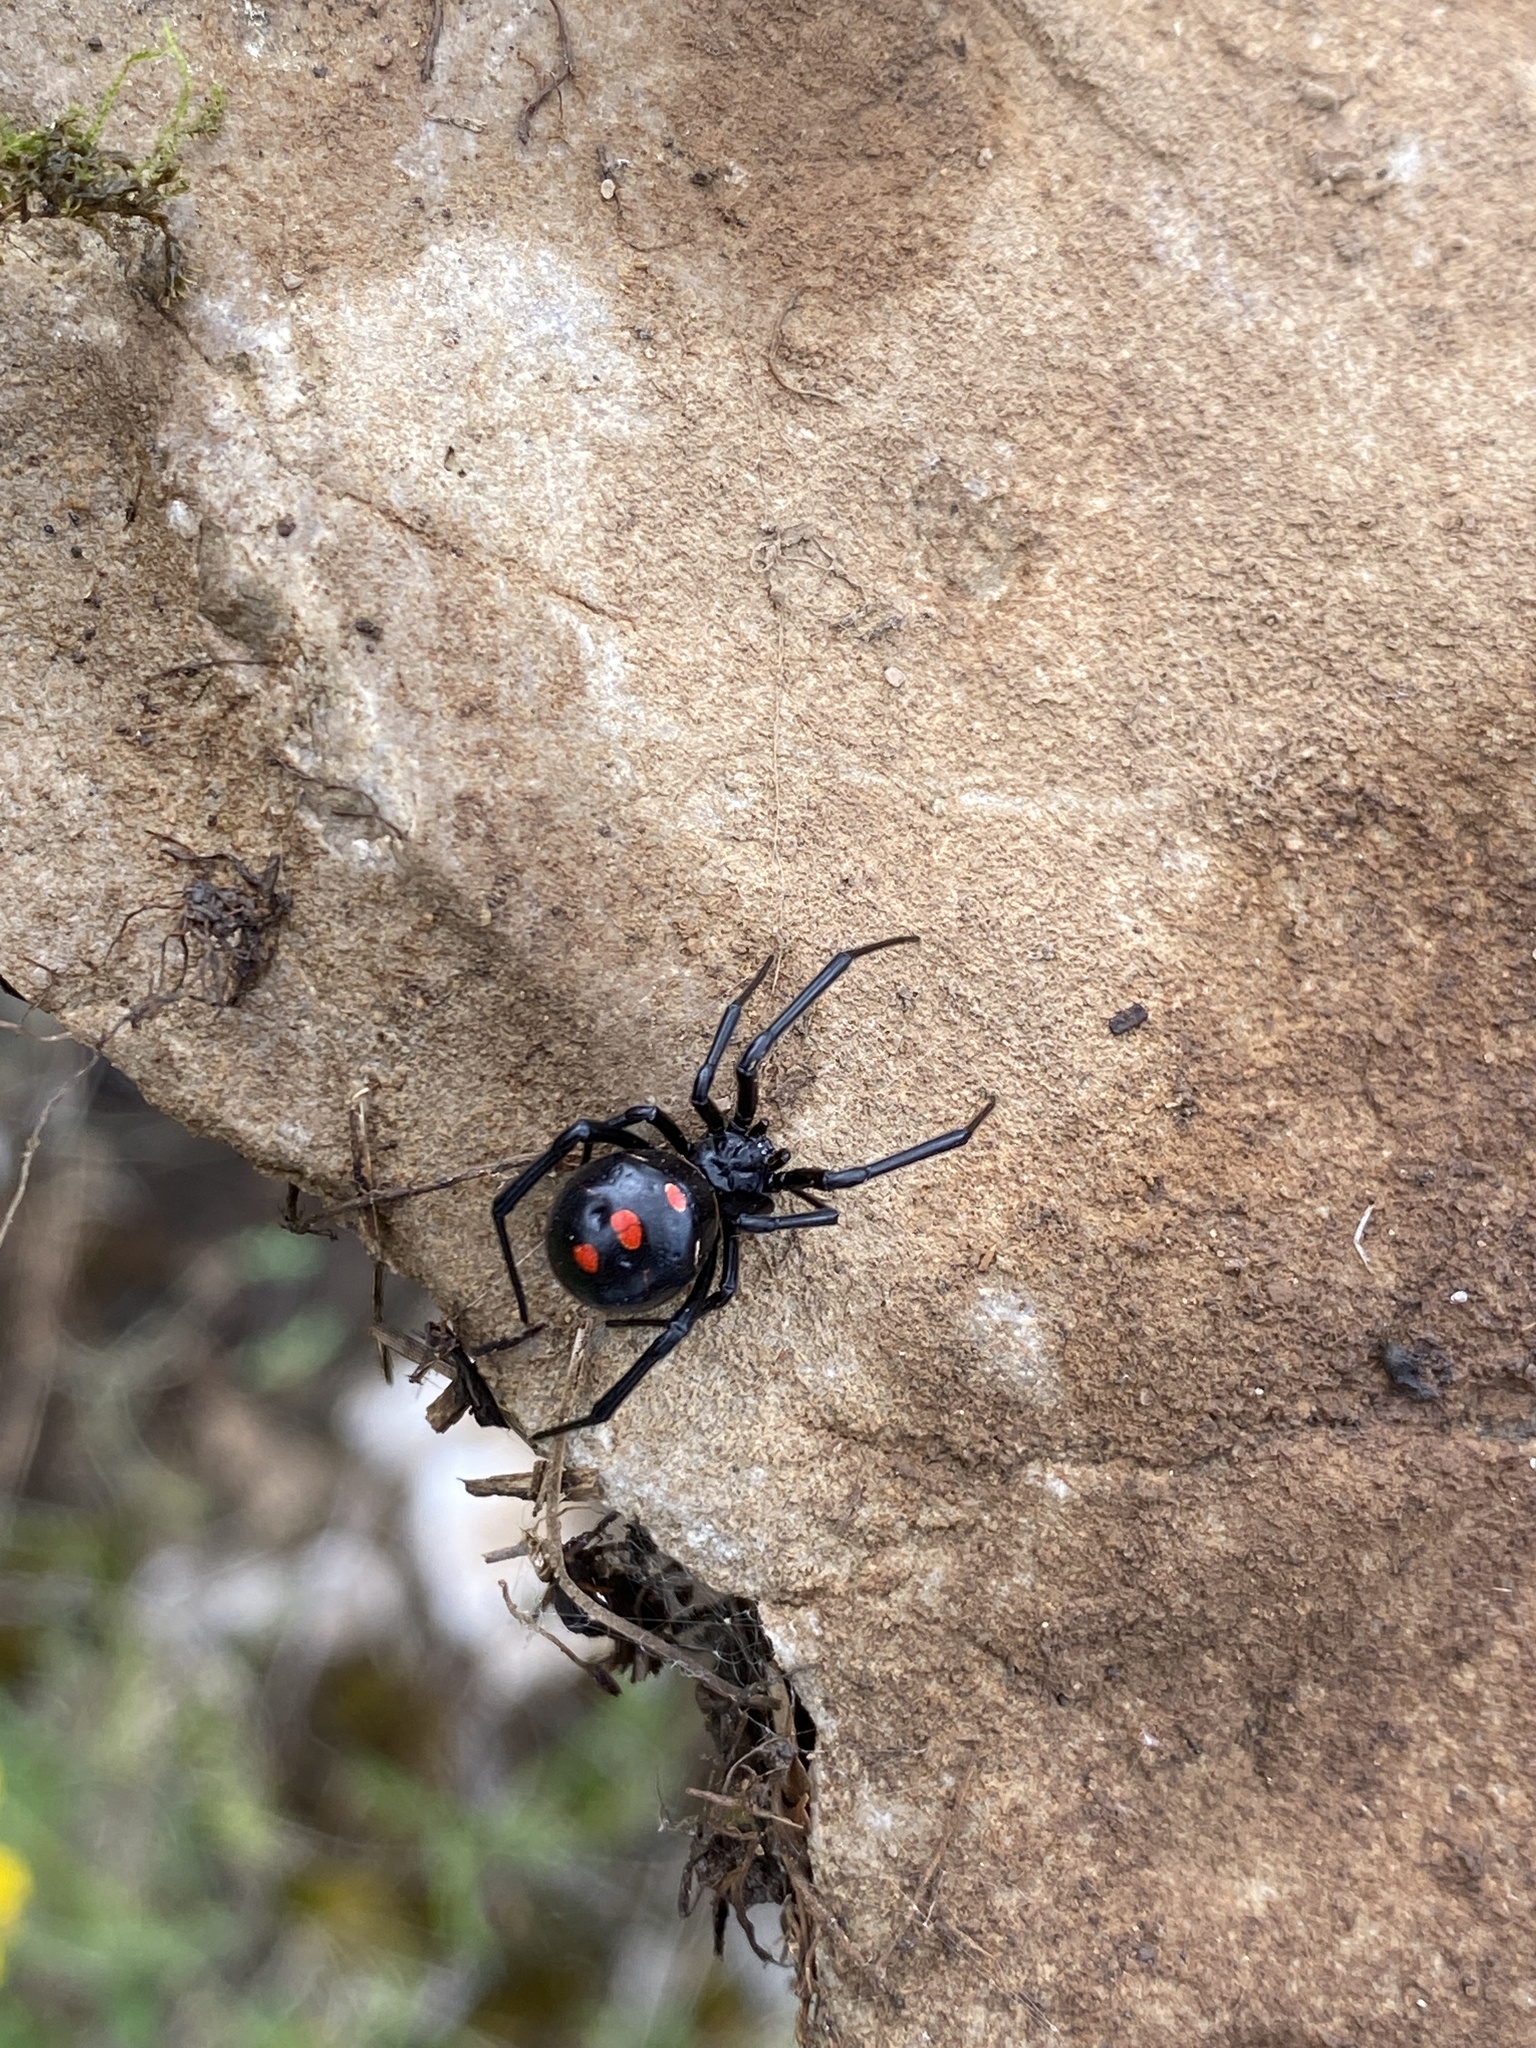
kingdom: Animalia
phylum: Arthropoda
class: Arachnida
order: Araneae
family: Theridiidae
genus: Latrodectus
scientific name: Latrodectus variolus
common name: Northern black widow
